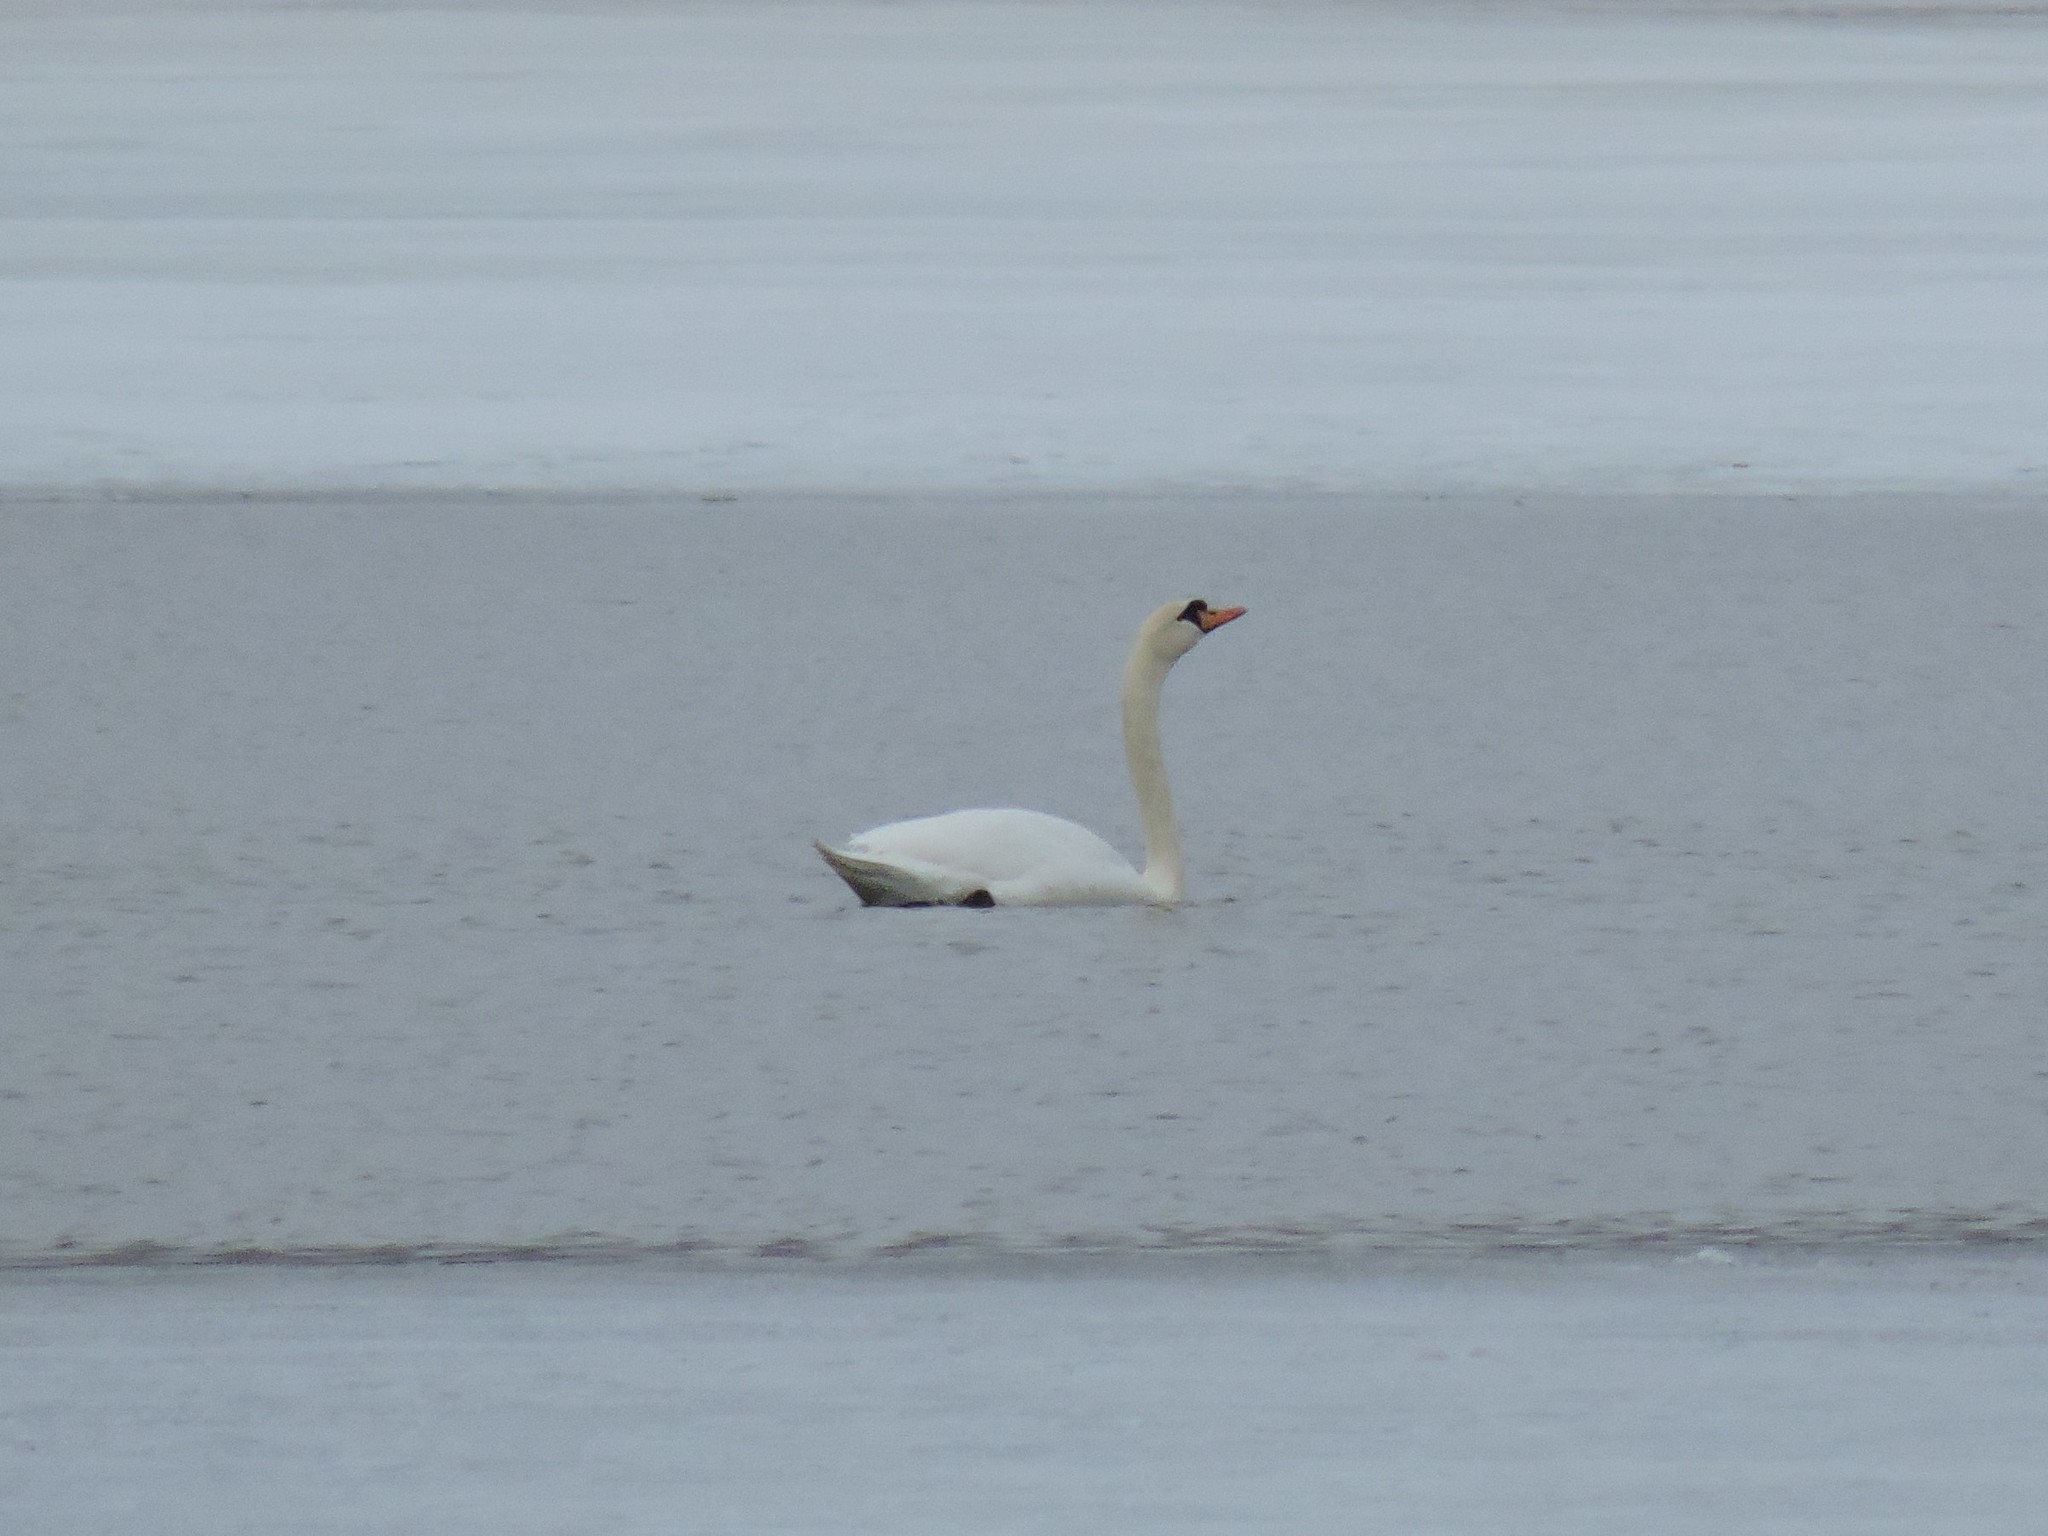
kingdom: Animalia
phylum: Chordata
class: Aves
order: Anseriformes
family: Anatidae
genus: Cygnus
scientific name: Cygnus olor
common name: Mute swan
